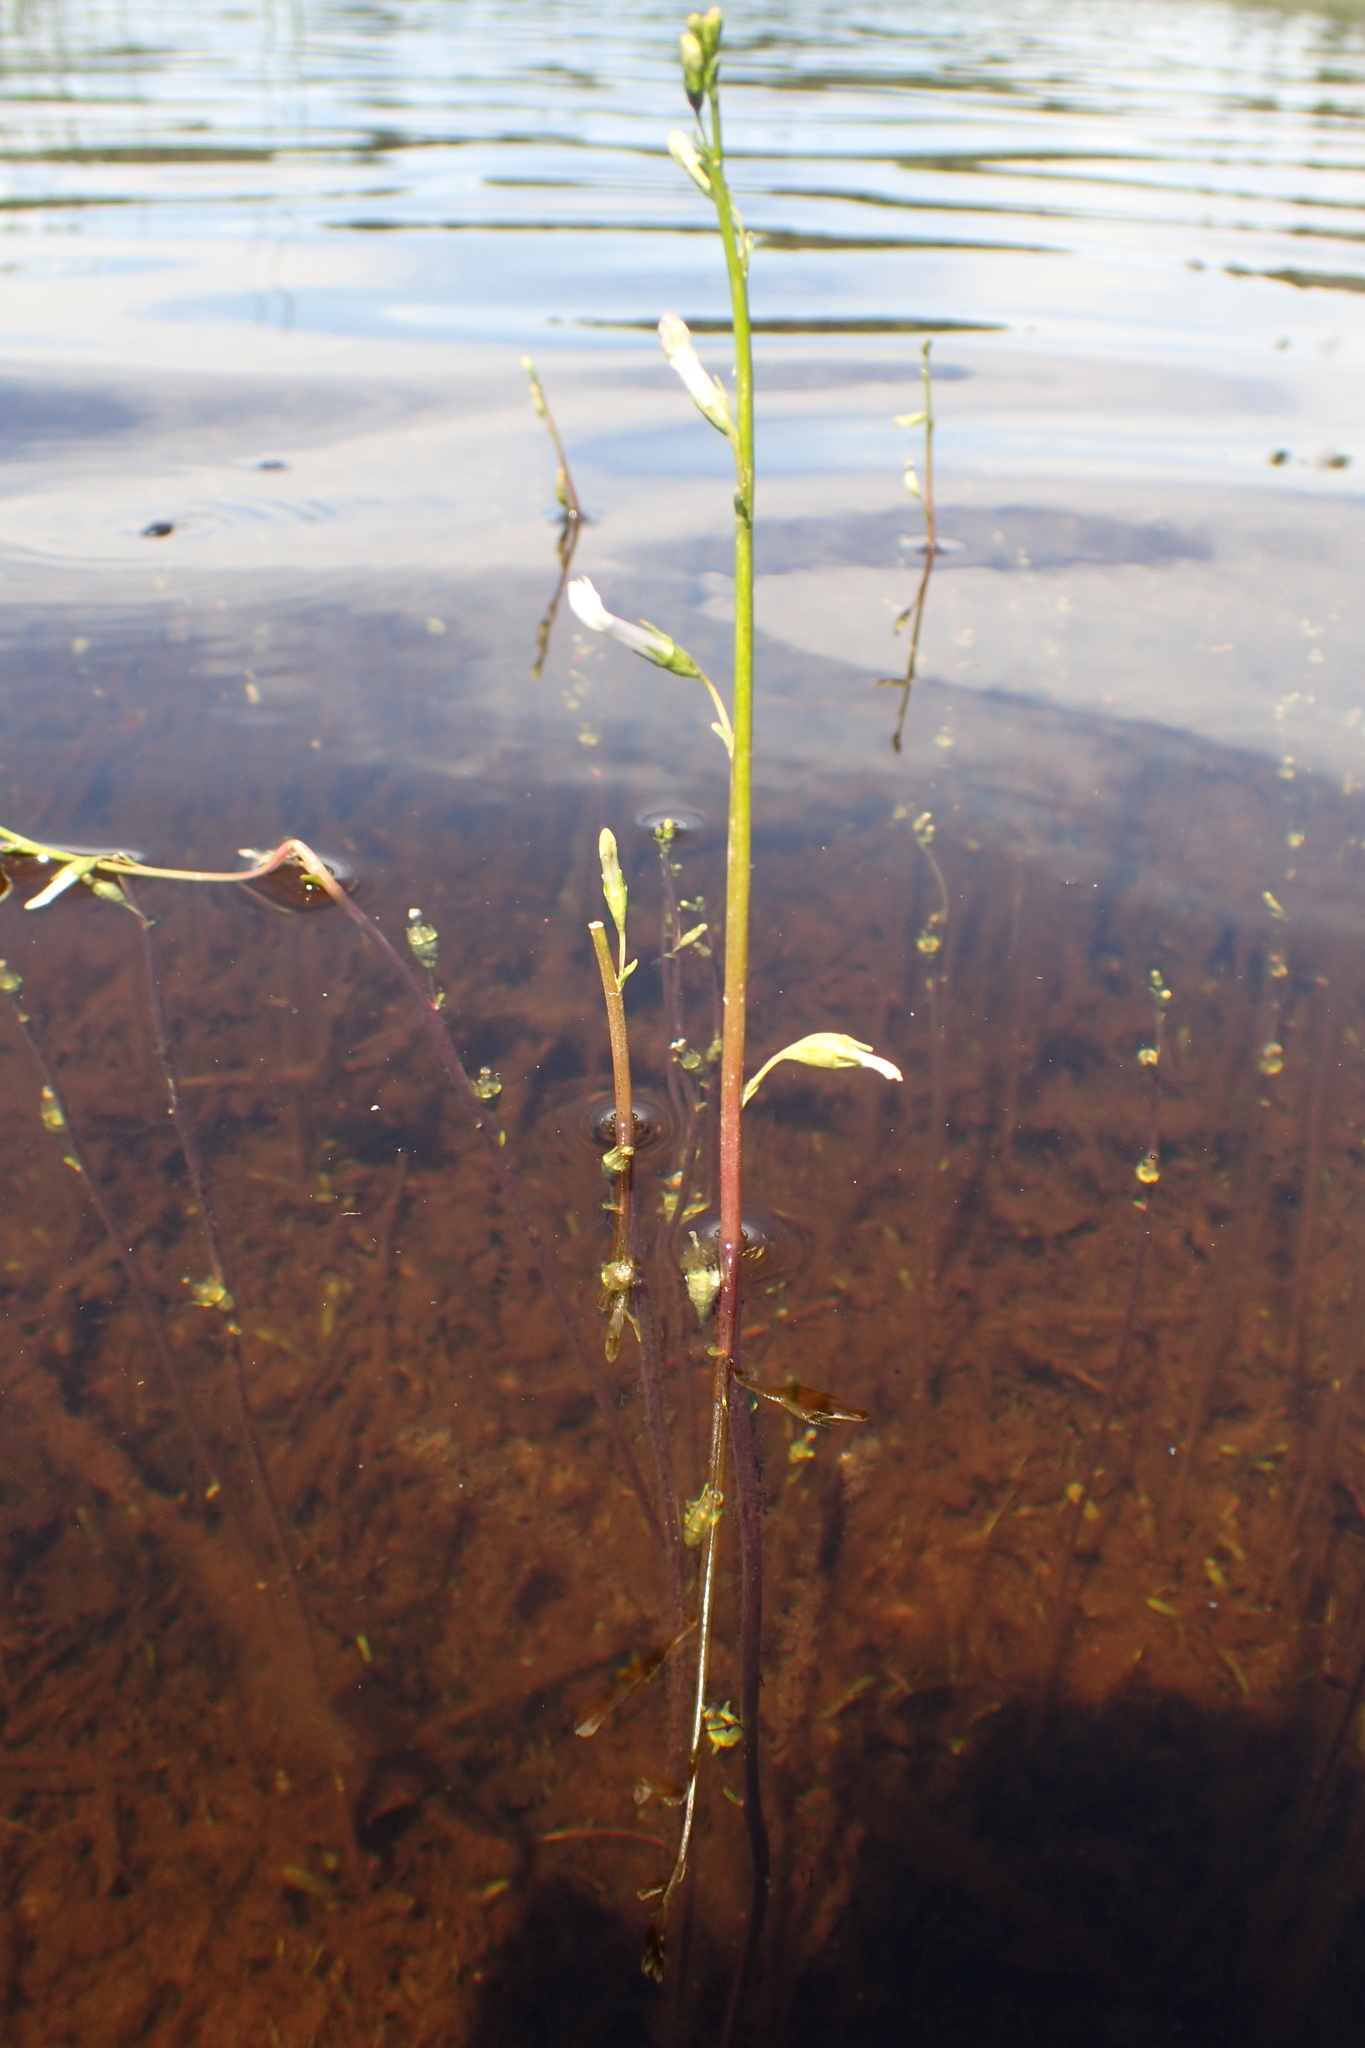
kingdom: Plantae
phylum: Tracheophyta
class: Magnoliopsida
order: Asterales
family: Campanulaceae
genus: Lobelia
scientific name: Lobelia dortmanna
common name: Water lobelia
